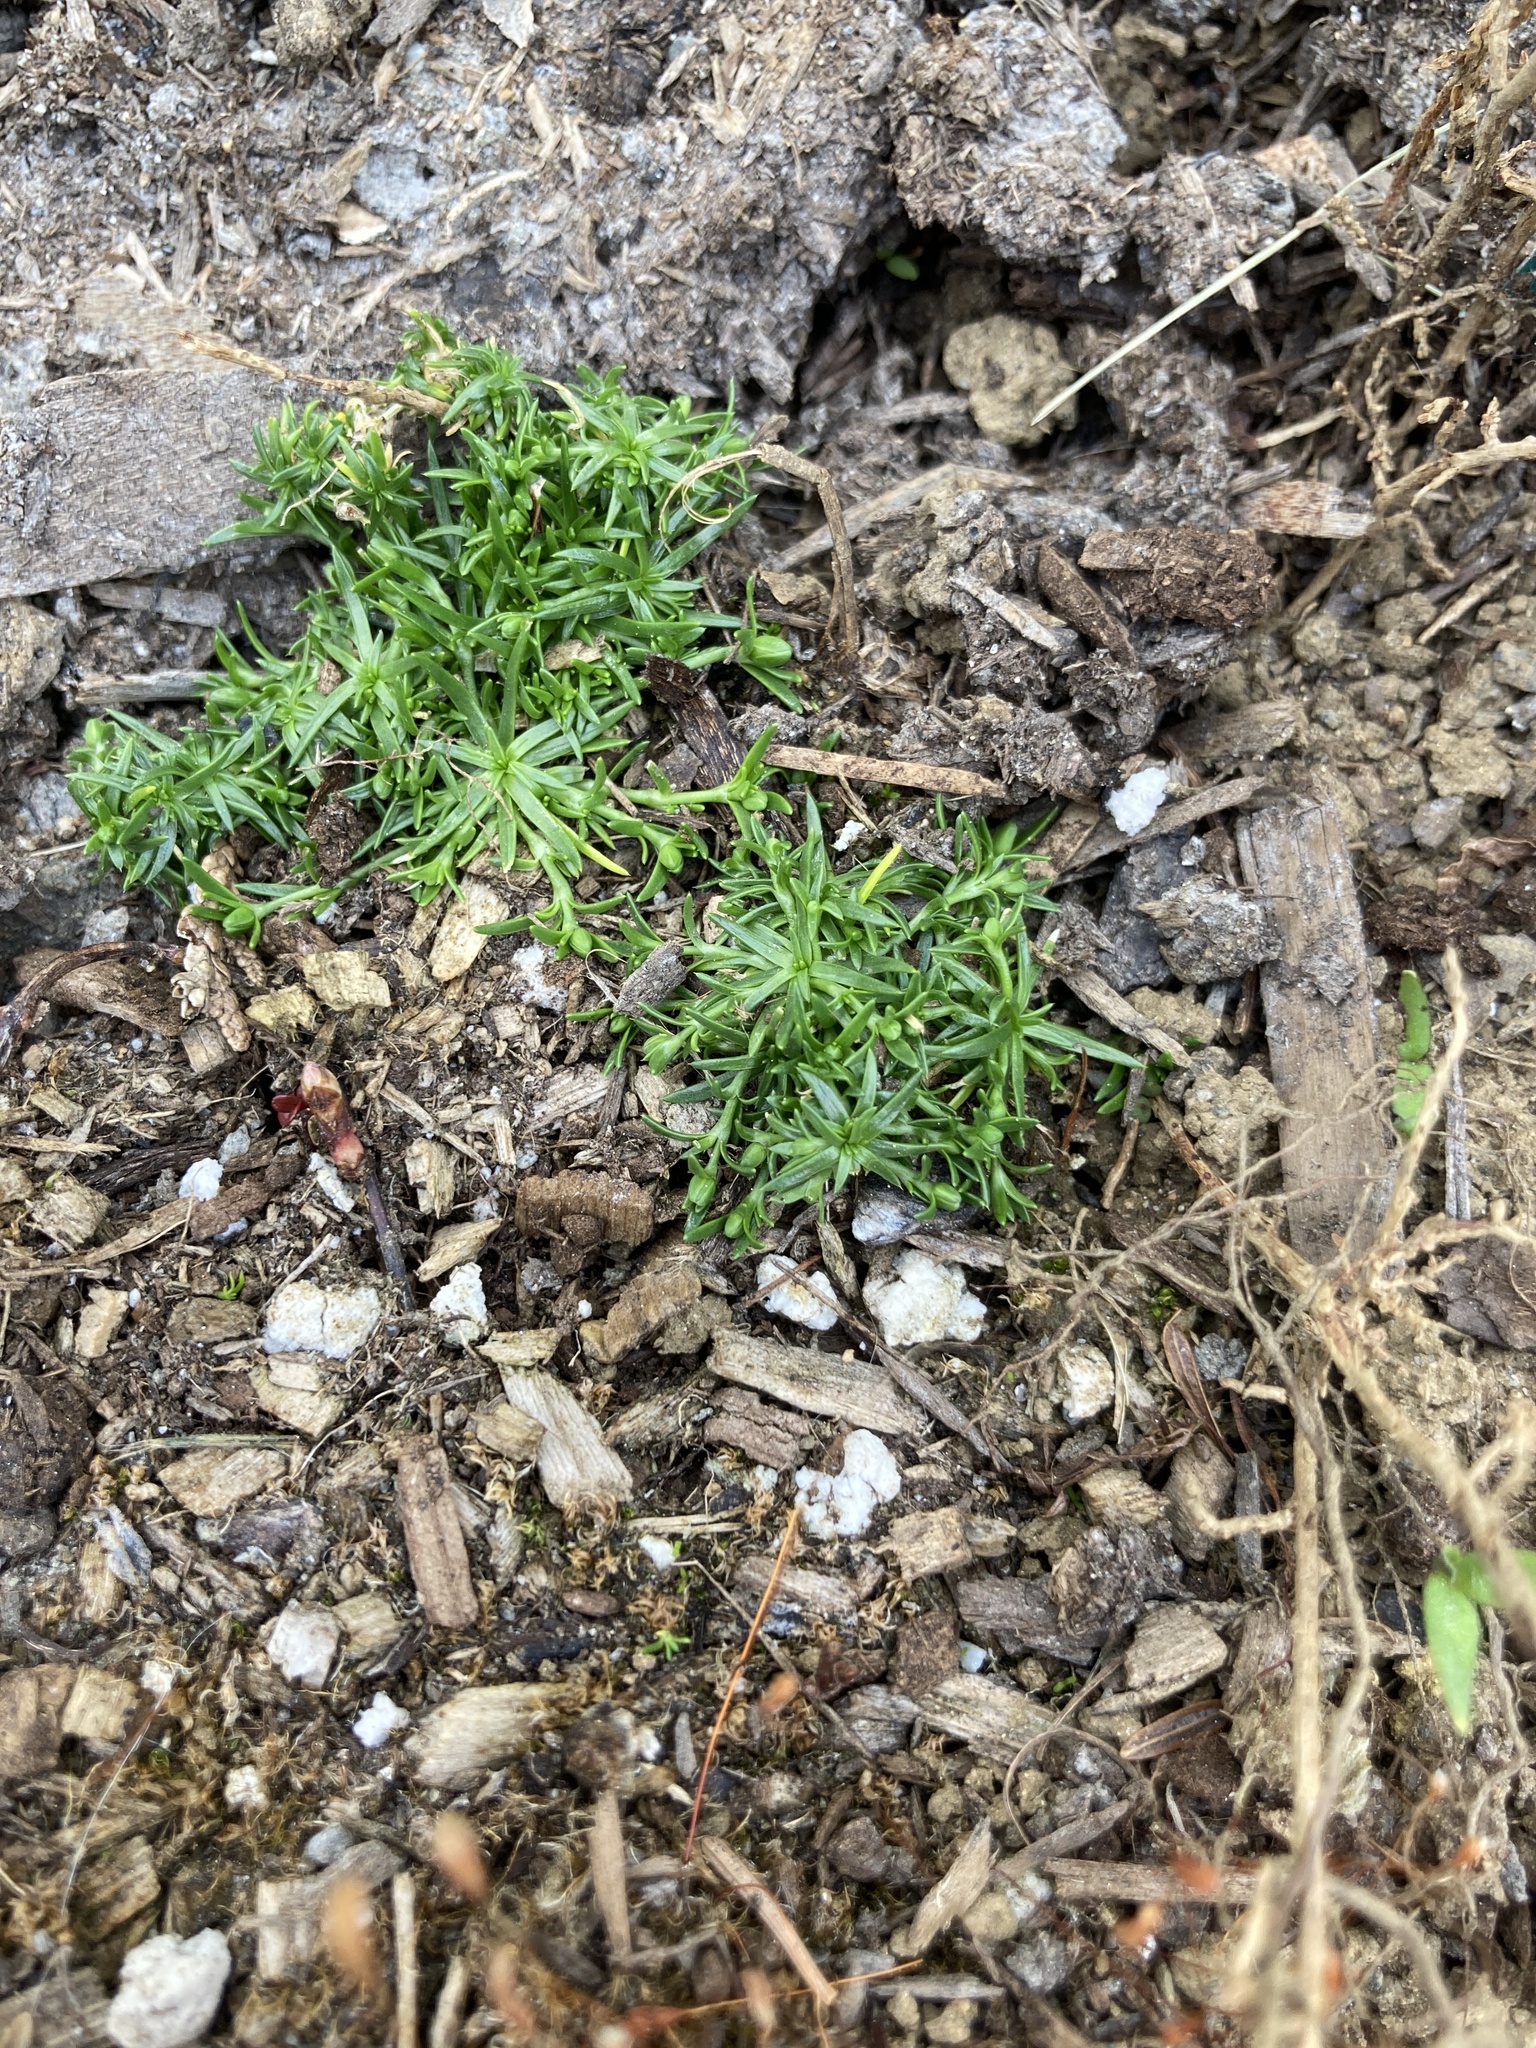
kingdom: Plantae
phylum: Tracheophyta
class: Magnoliopsida
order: Caryophyllales
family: Caryophyllaceae
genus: Sagina
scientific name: Sagina procumbens
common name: Procumbent pearlwort
